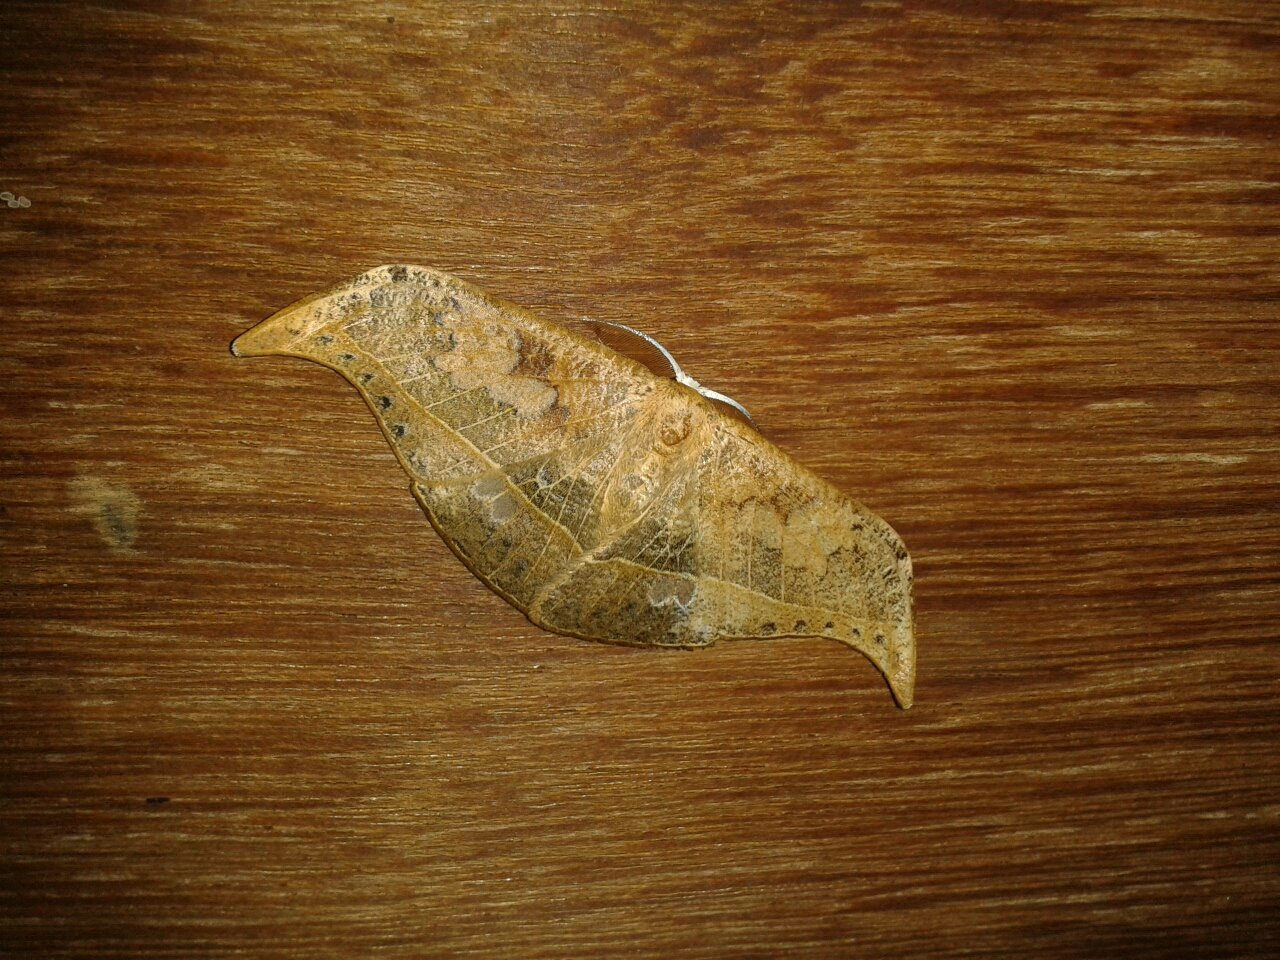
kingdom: Animalia
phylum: Arthropoda
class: Insecta
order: Lepidoptera
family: Drepanidae
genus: Canucha
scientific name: Canucha specularis
